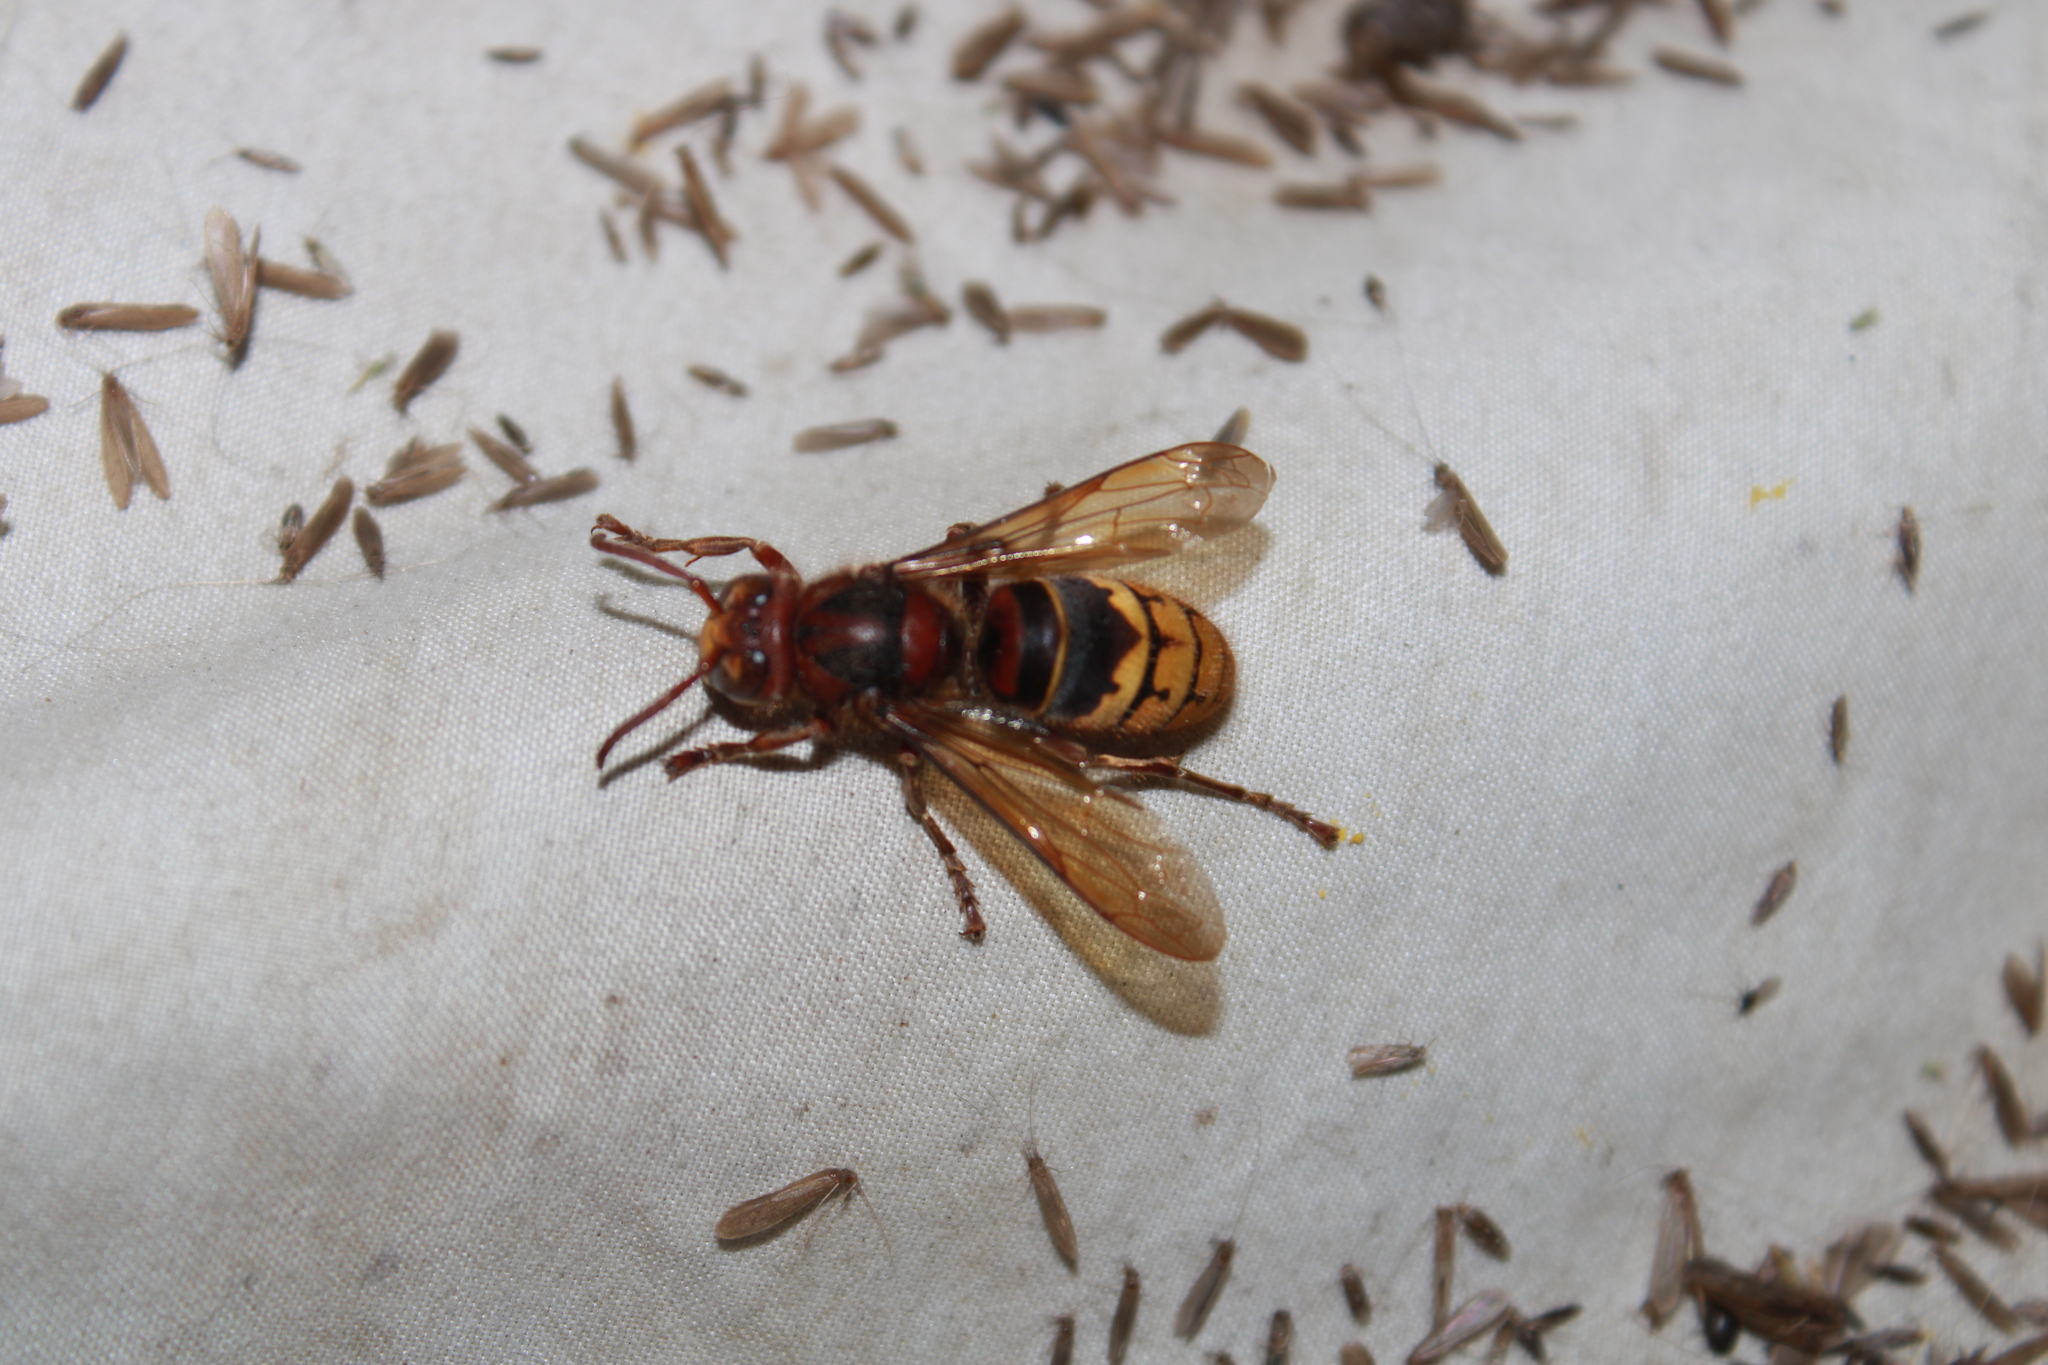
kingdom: Animalia
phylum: Arthropoda
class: Insecta
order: Hymenoptera
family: Vespidae
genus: Vespa
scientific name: Vespa crabro
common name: Hornet
